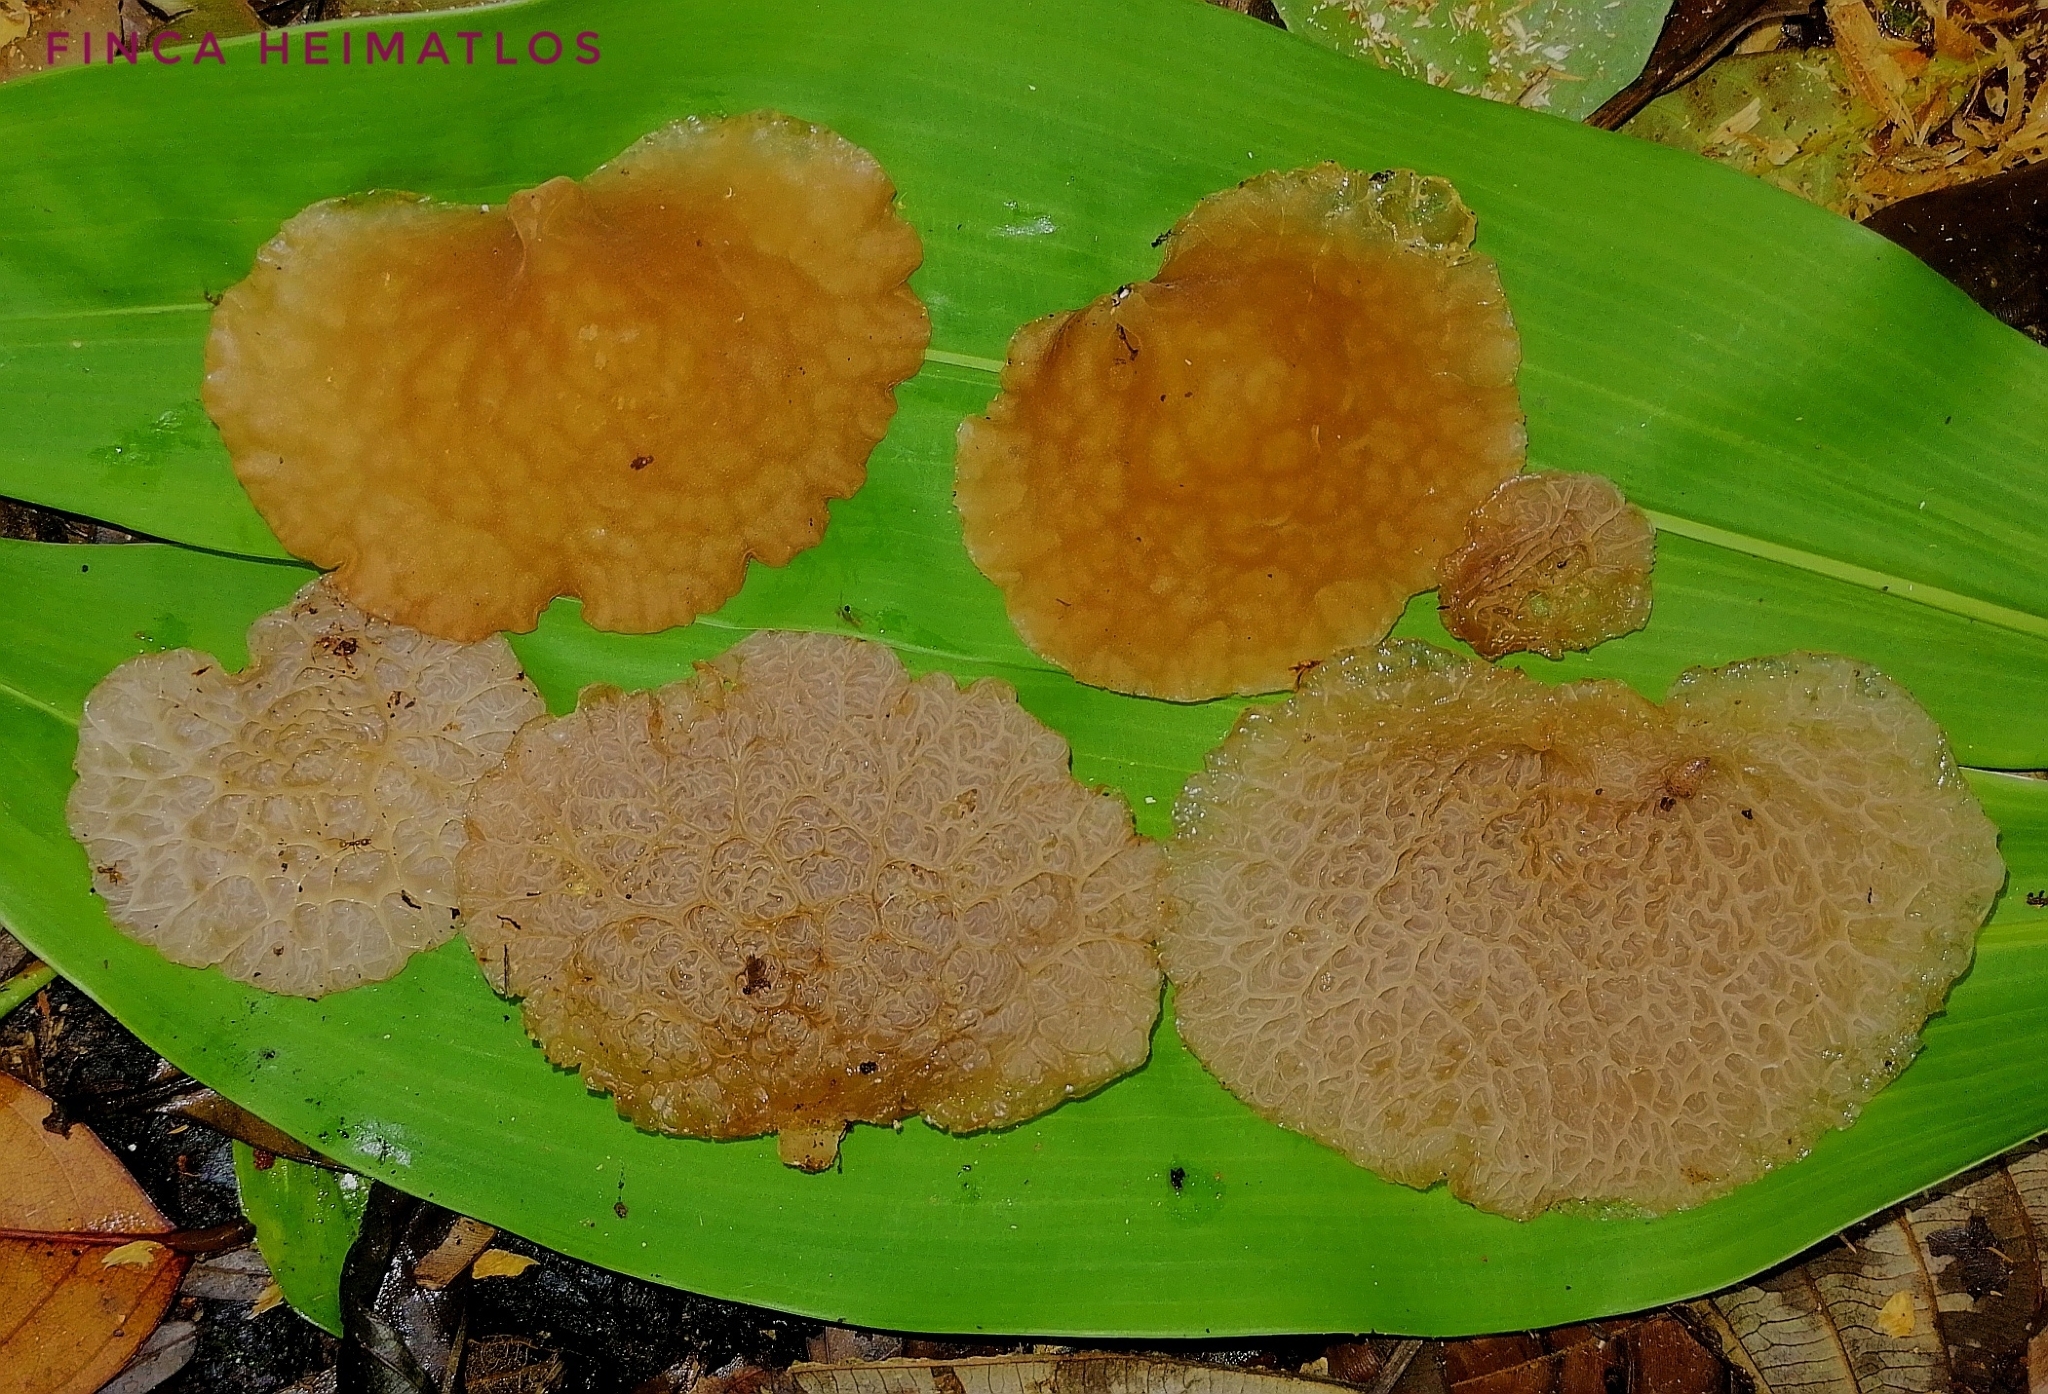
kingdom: Fungi
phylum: Basidiomycota
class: Agaricomycetes
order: Auriculariales
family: Auriculariaceae
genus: Auricularia
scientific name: Auricularia delicata
